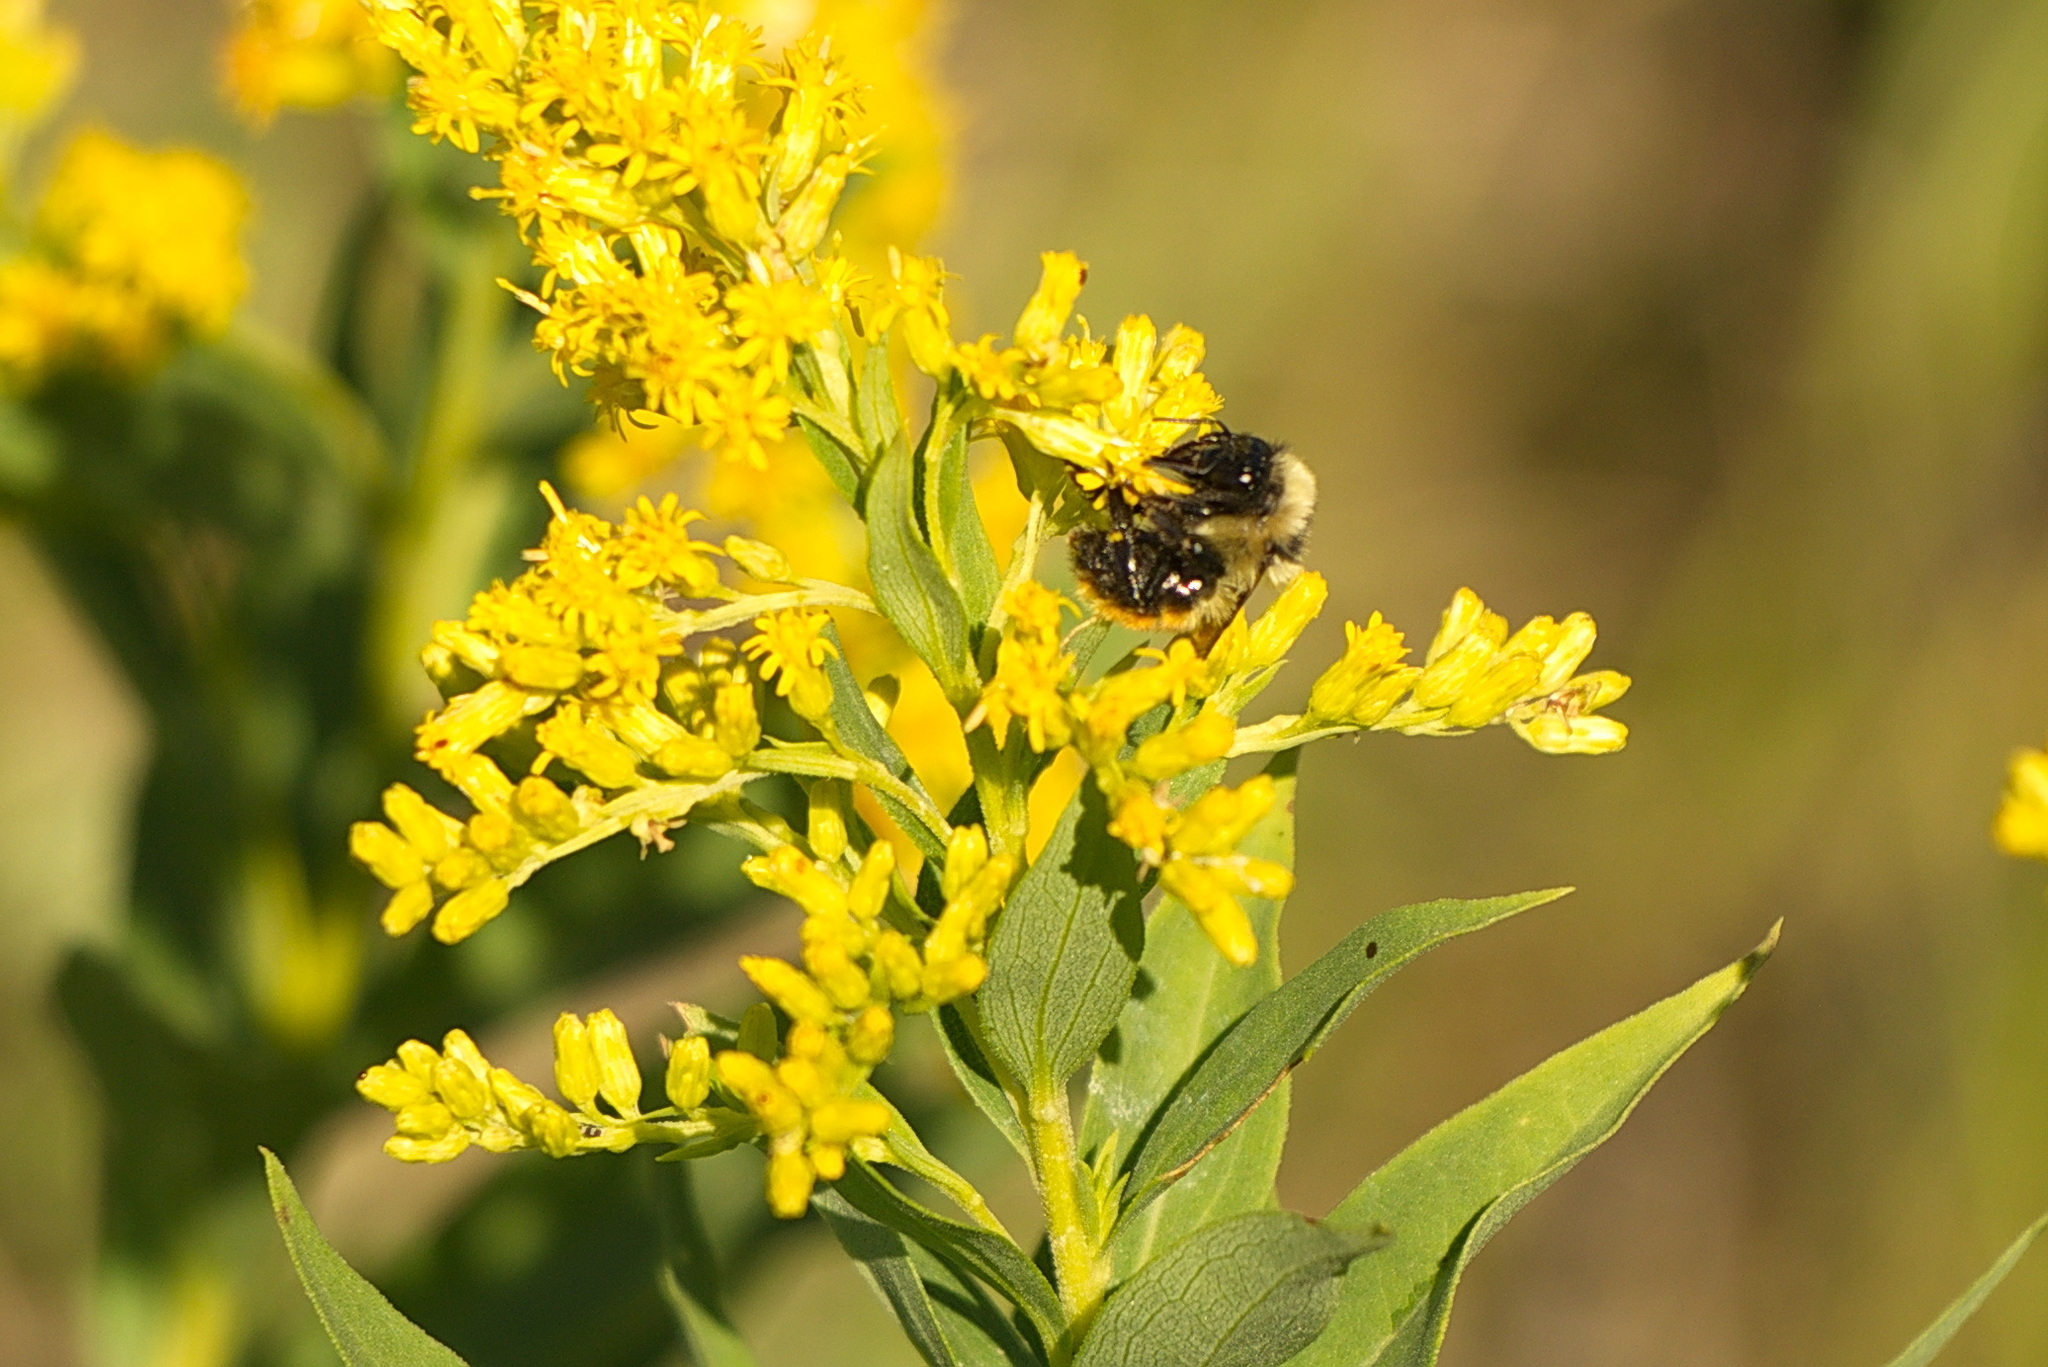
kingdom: Animalia
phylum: Arthropoda
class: Insecta
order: Hymenoptera
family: Apidae
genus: Bombus
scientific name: Bombus rufocinctus
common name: Red-belted bumble bee
